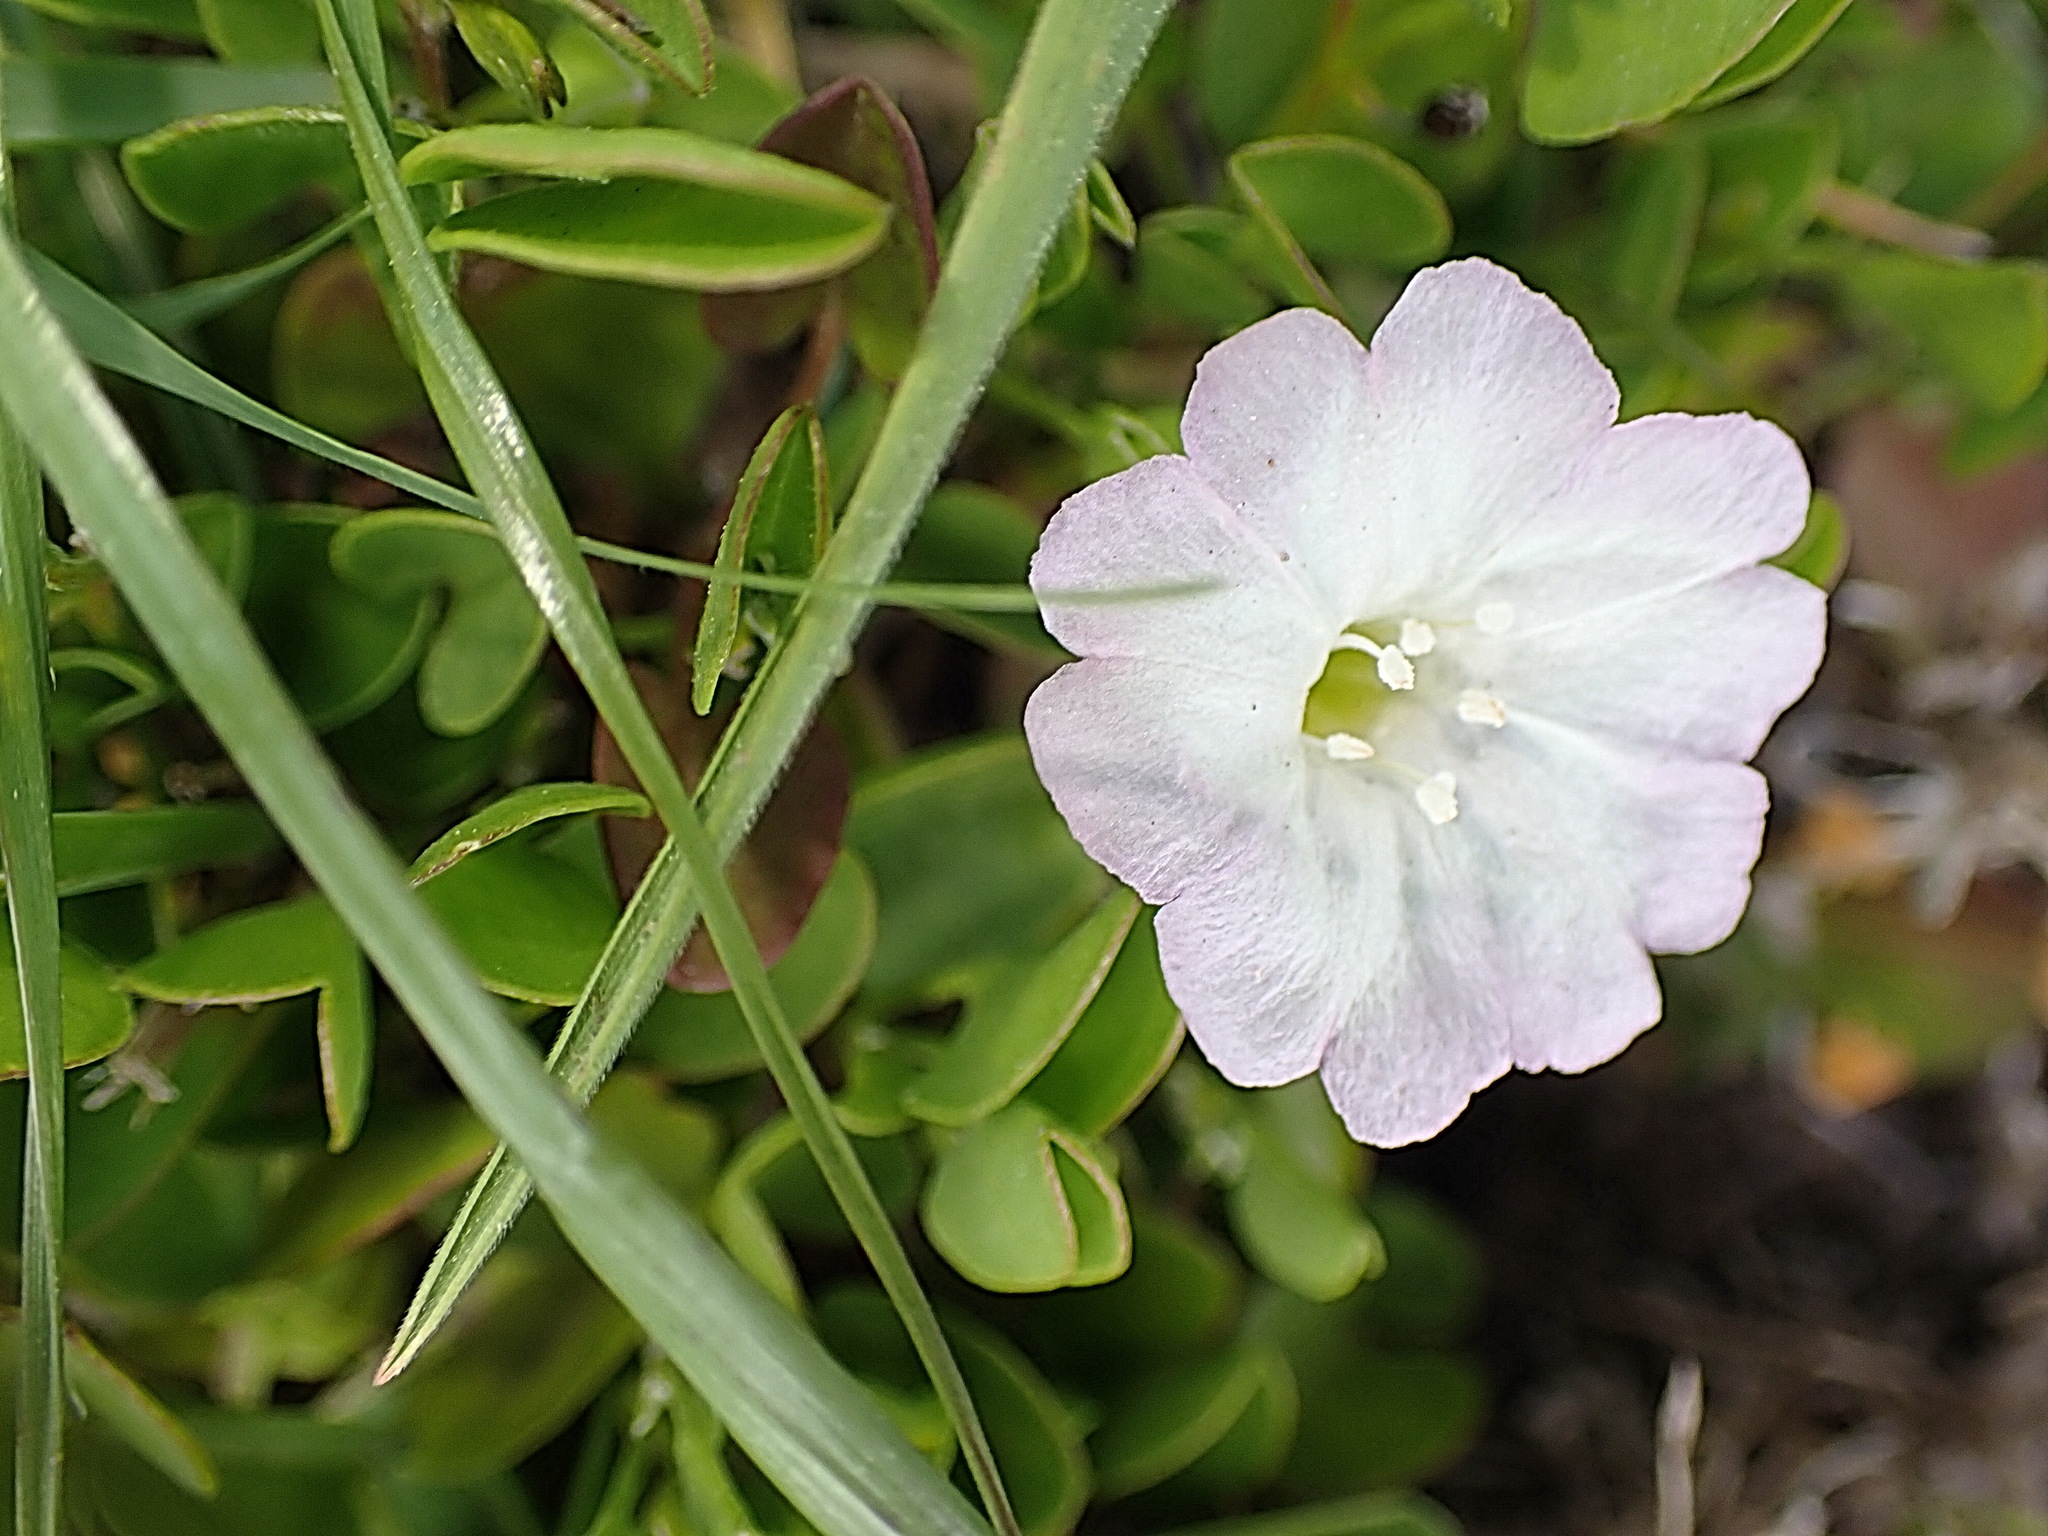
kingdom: Plantae
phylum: Tracheophyta
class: Magnoliopsida
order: Solanales
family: Convolvulaceae
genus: Falkia
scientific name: Falkia repens
